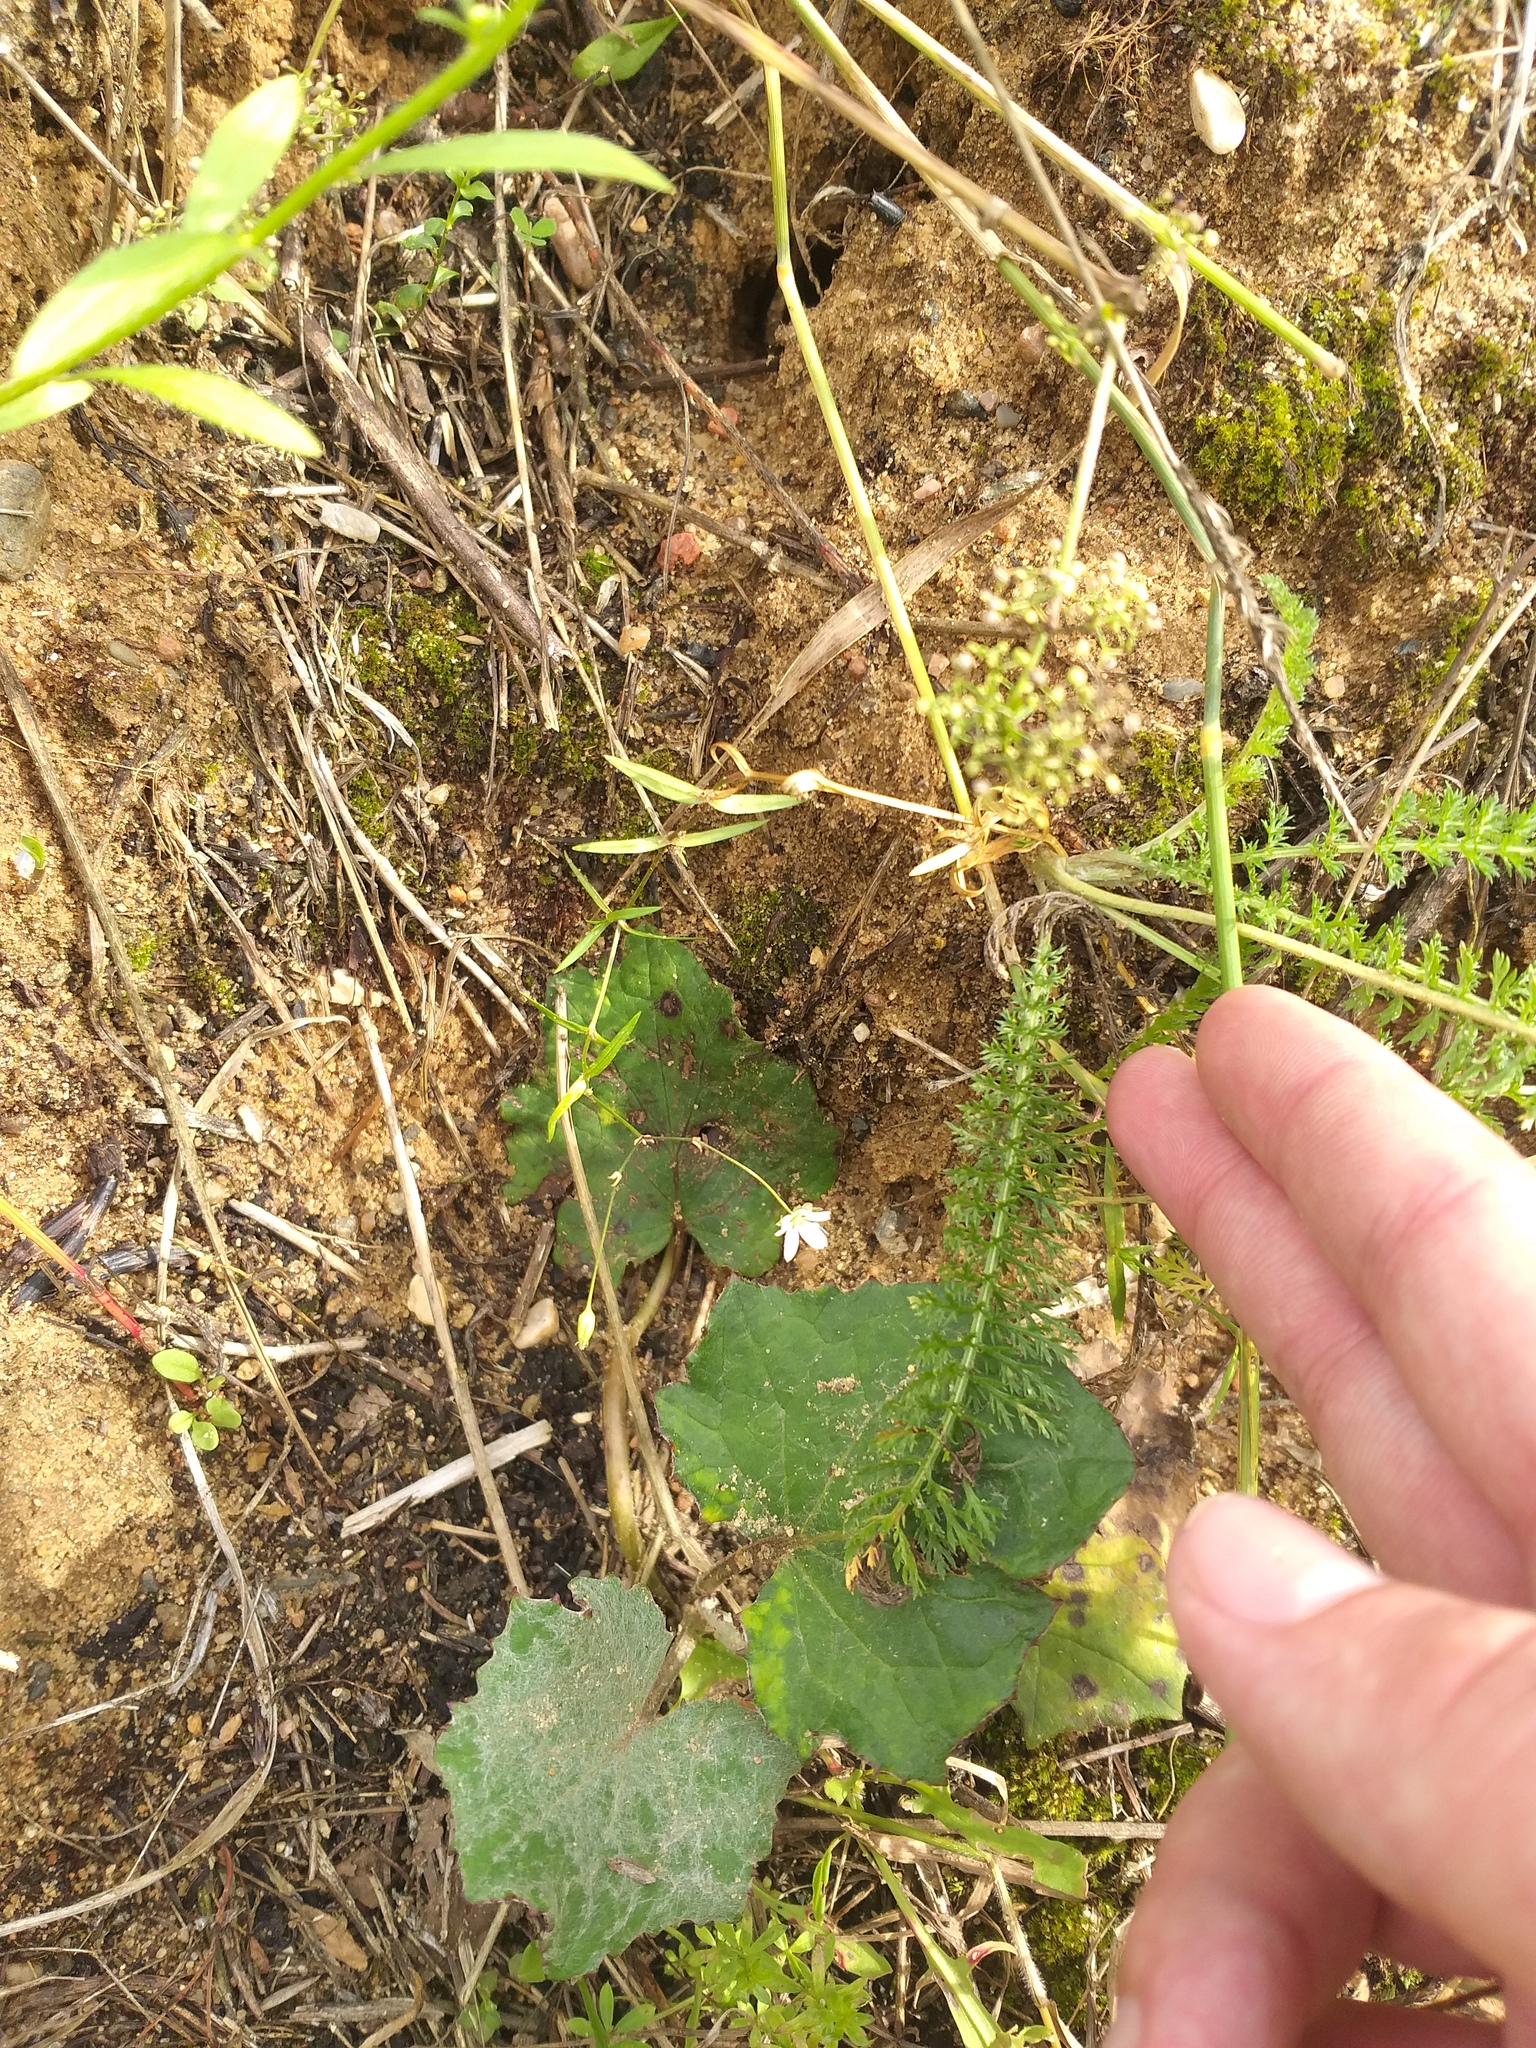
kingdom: Plantae
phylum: Tracheophyta
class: Magnoliopsida
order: Caryophyllales
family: Caryophyllaceae
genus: Stellaria
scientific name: Stellaria graminea
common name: Grass-like starwort
